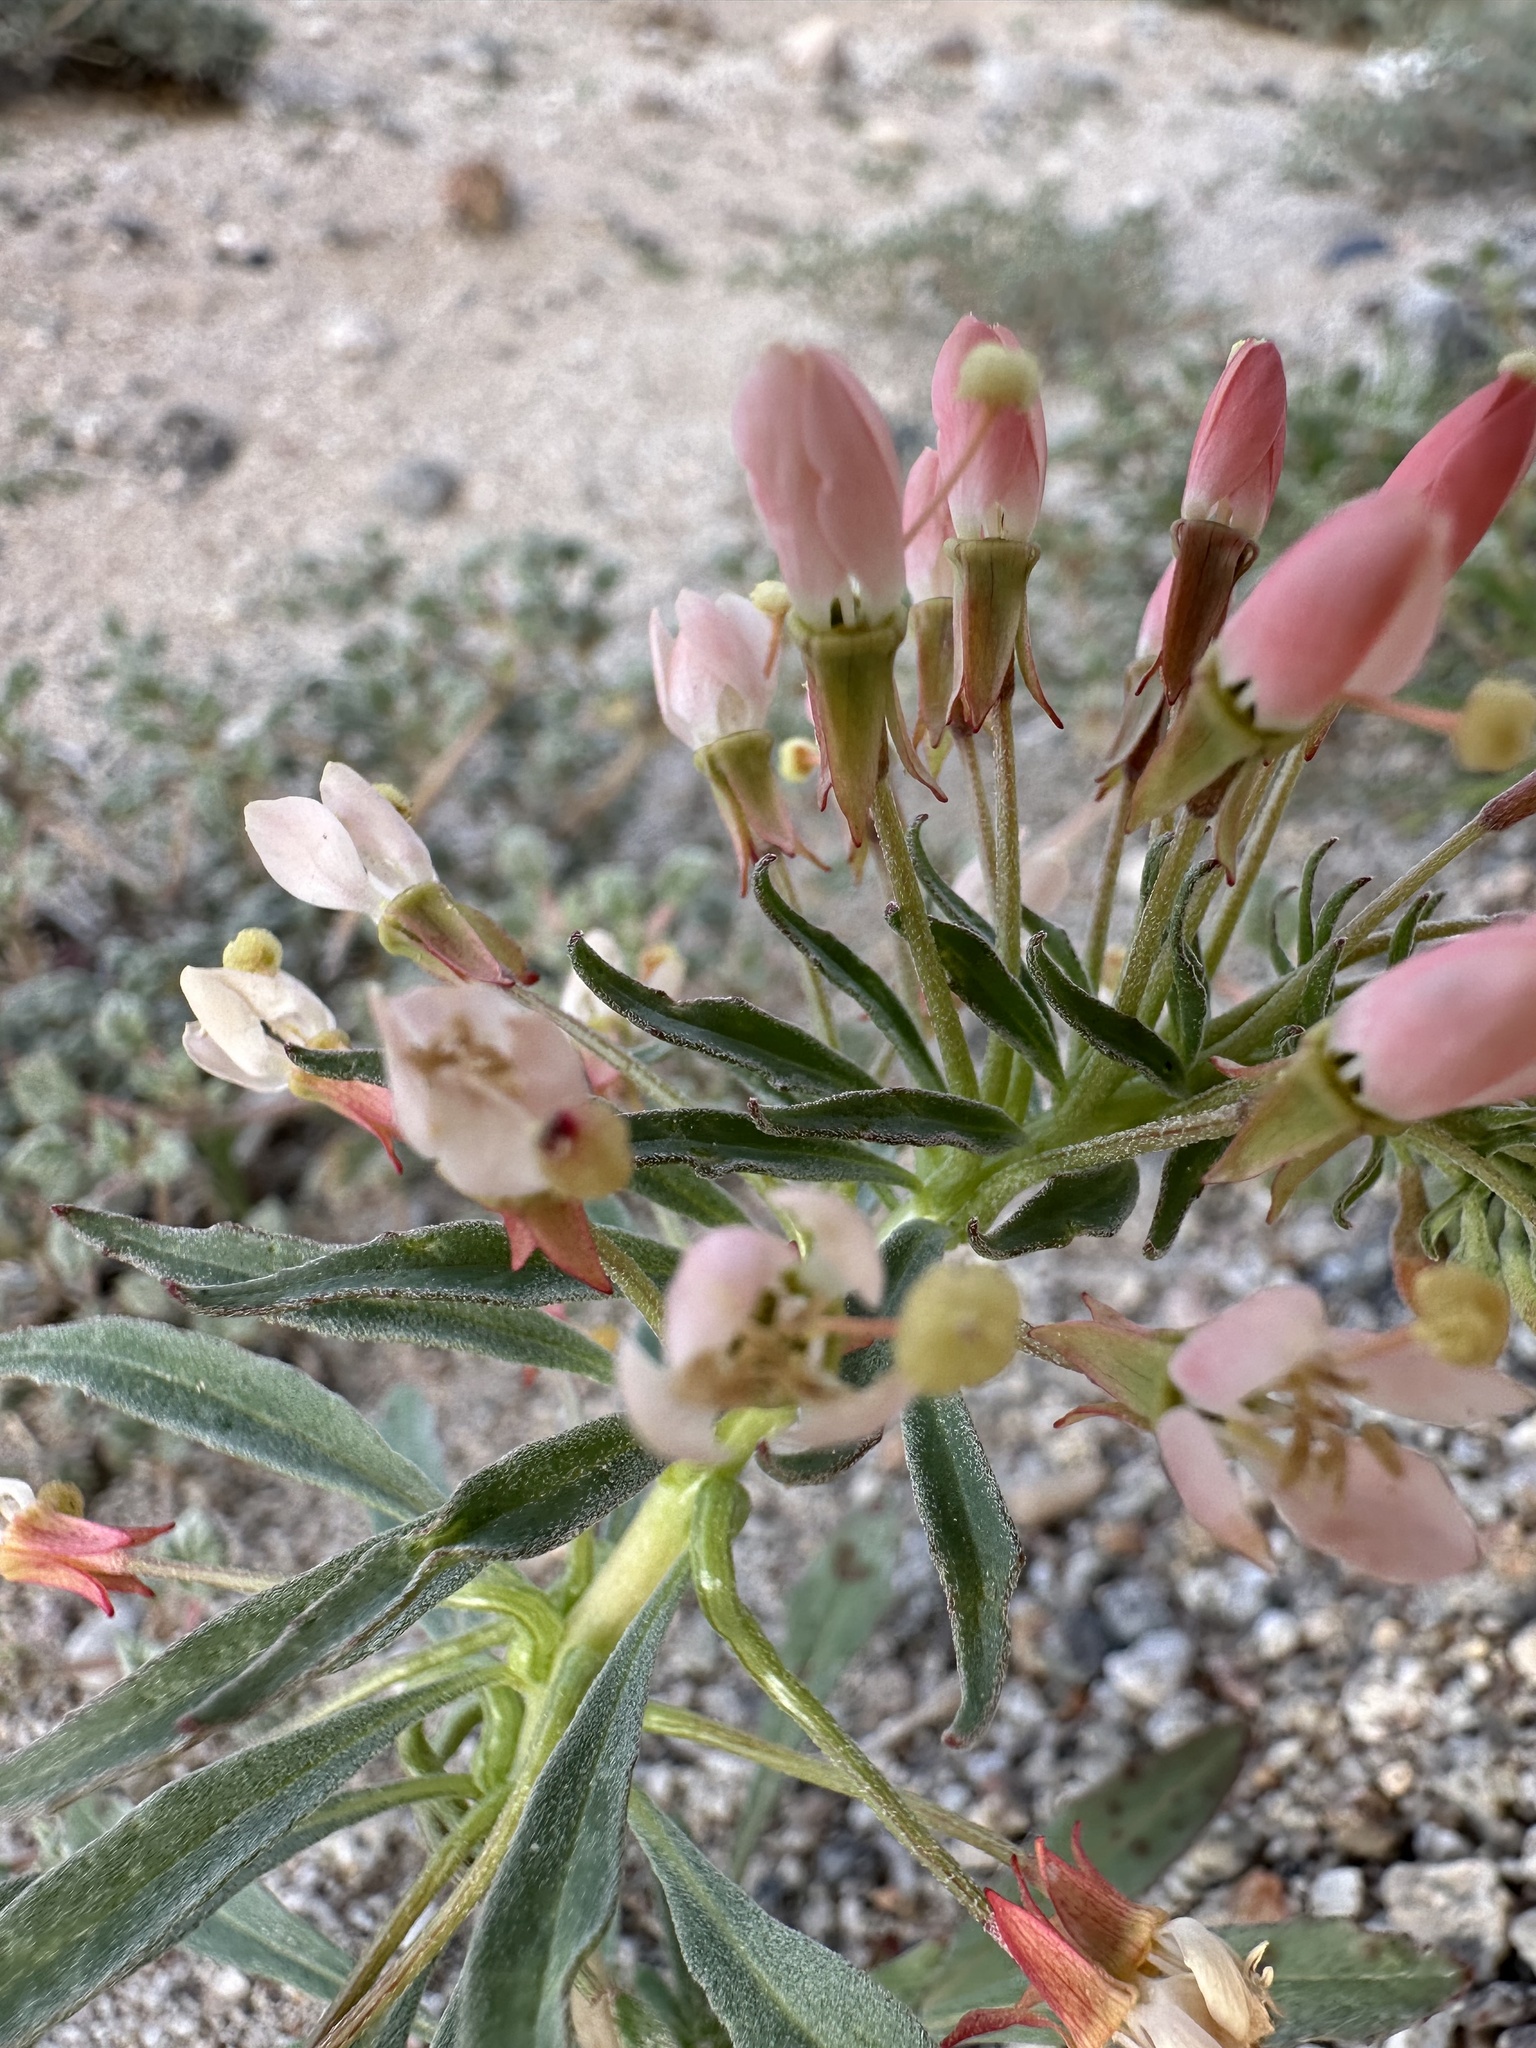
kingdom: Plantae
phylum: Tracheophyta
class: Magnoliopsida
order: Myrtales
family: Onagraceae
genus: Eremothera
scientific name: Eremothera boothii
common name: Booth's evening primrose
